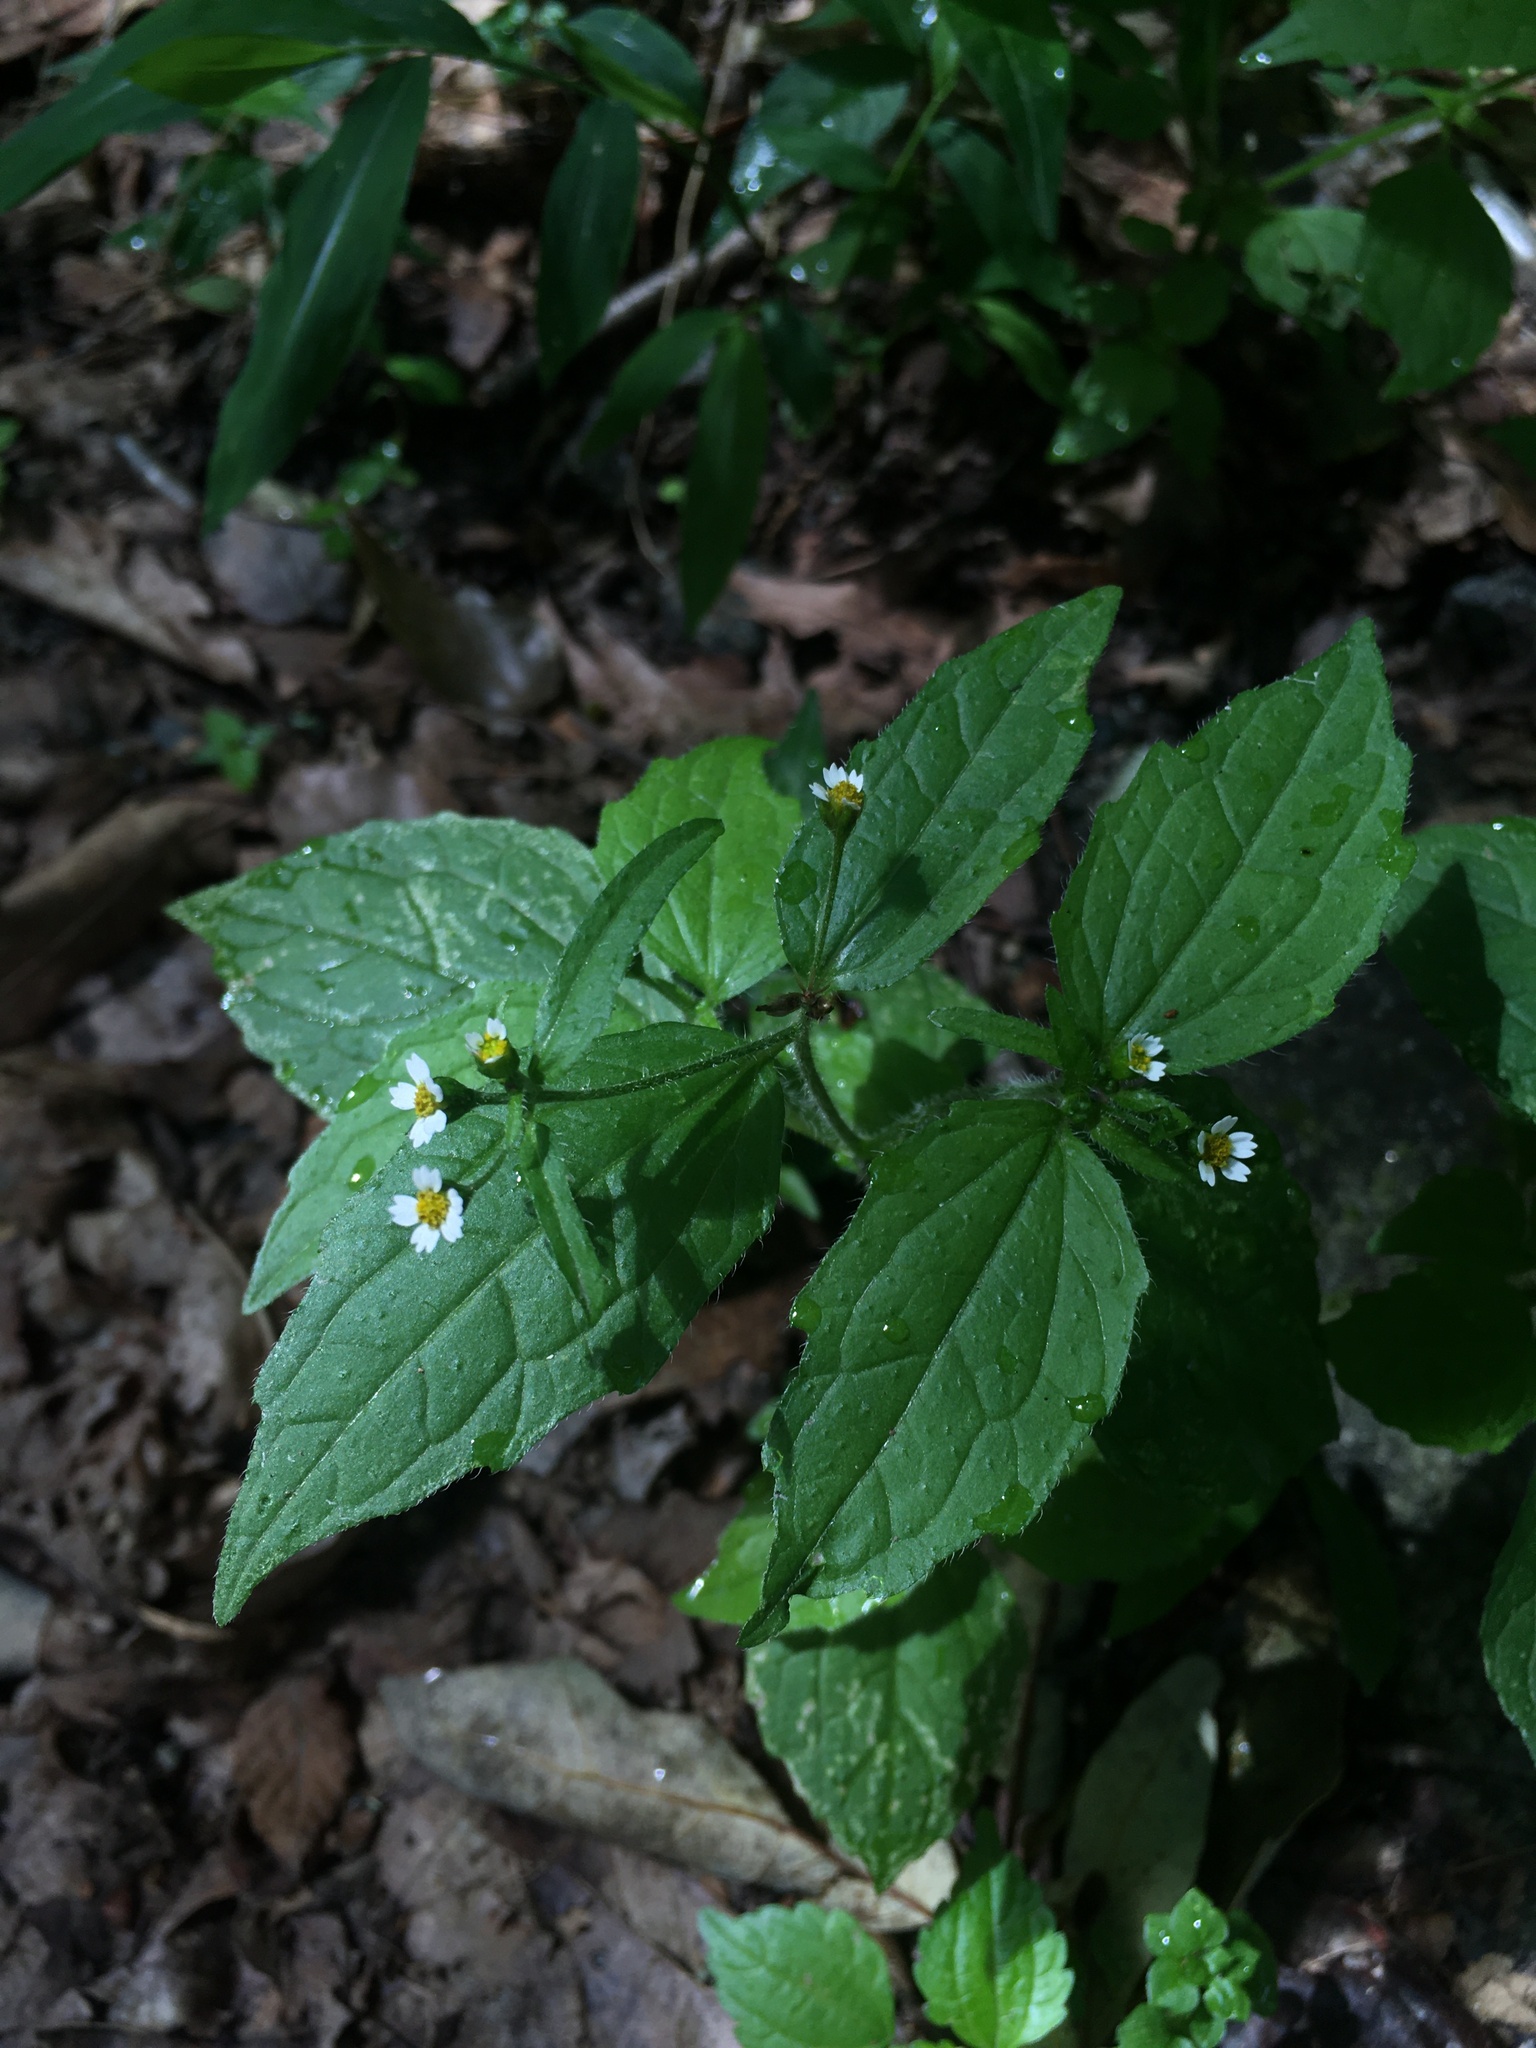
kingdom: Plantae
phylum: Tracheophyta
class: Magnoliopsida
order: Asterales
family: Asteraceae
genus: Galinsoga
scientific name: Galinsoga quadriradiata
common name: Shaggy soldier
